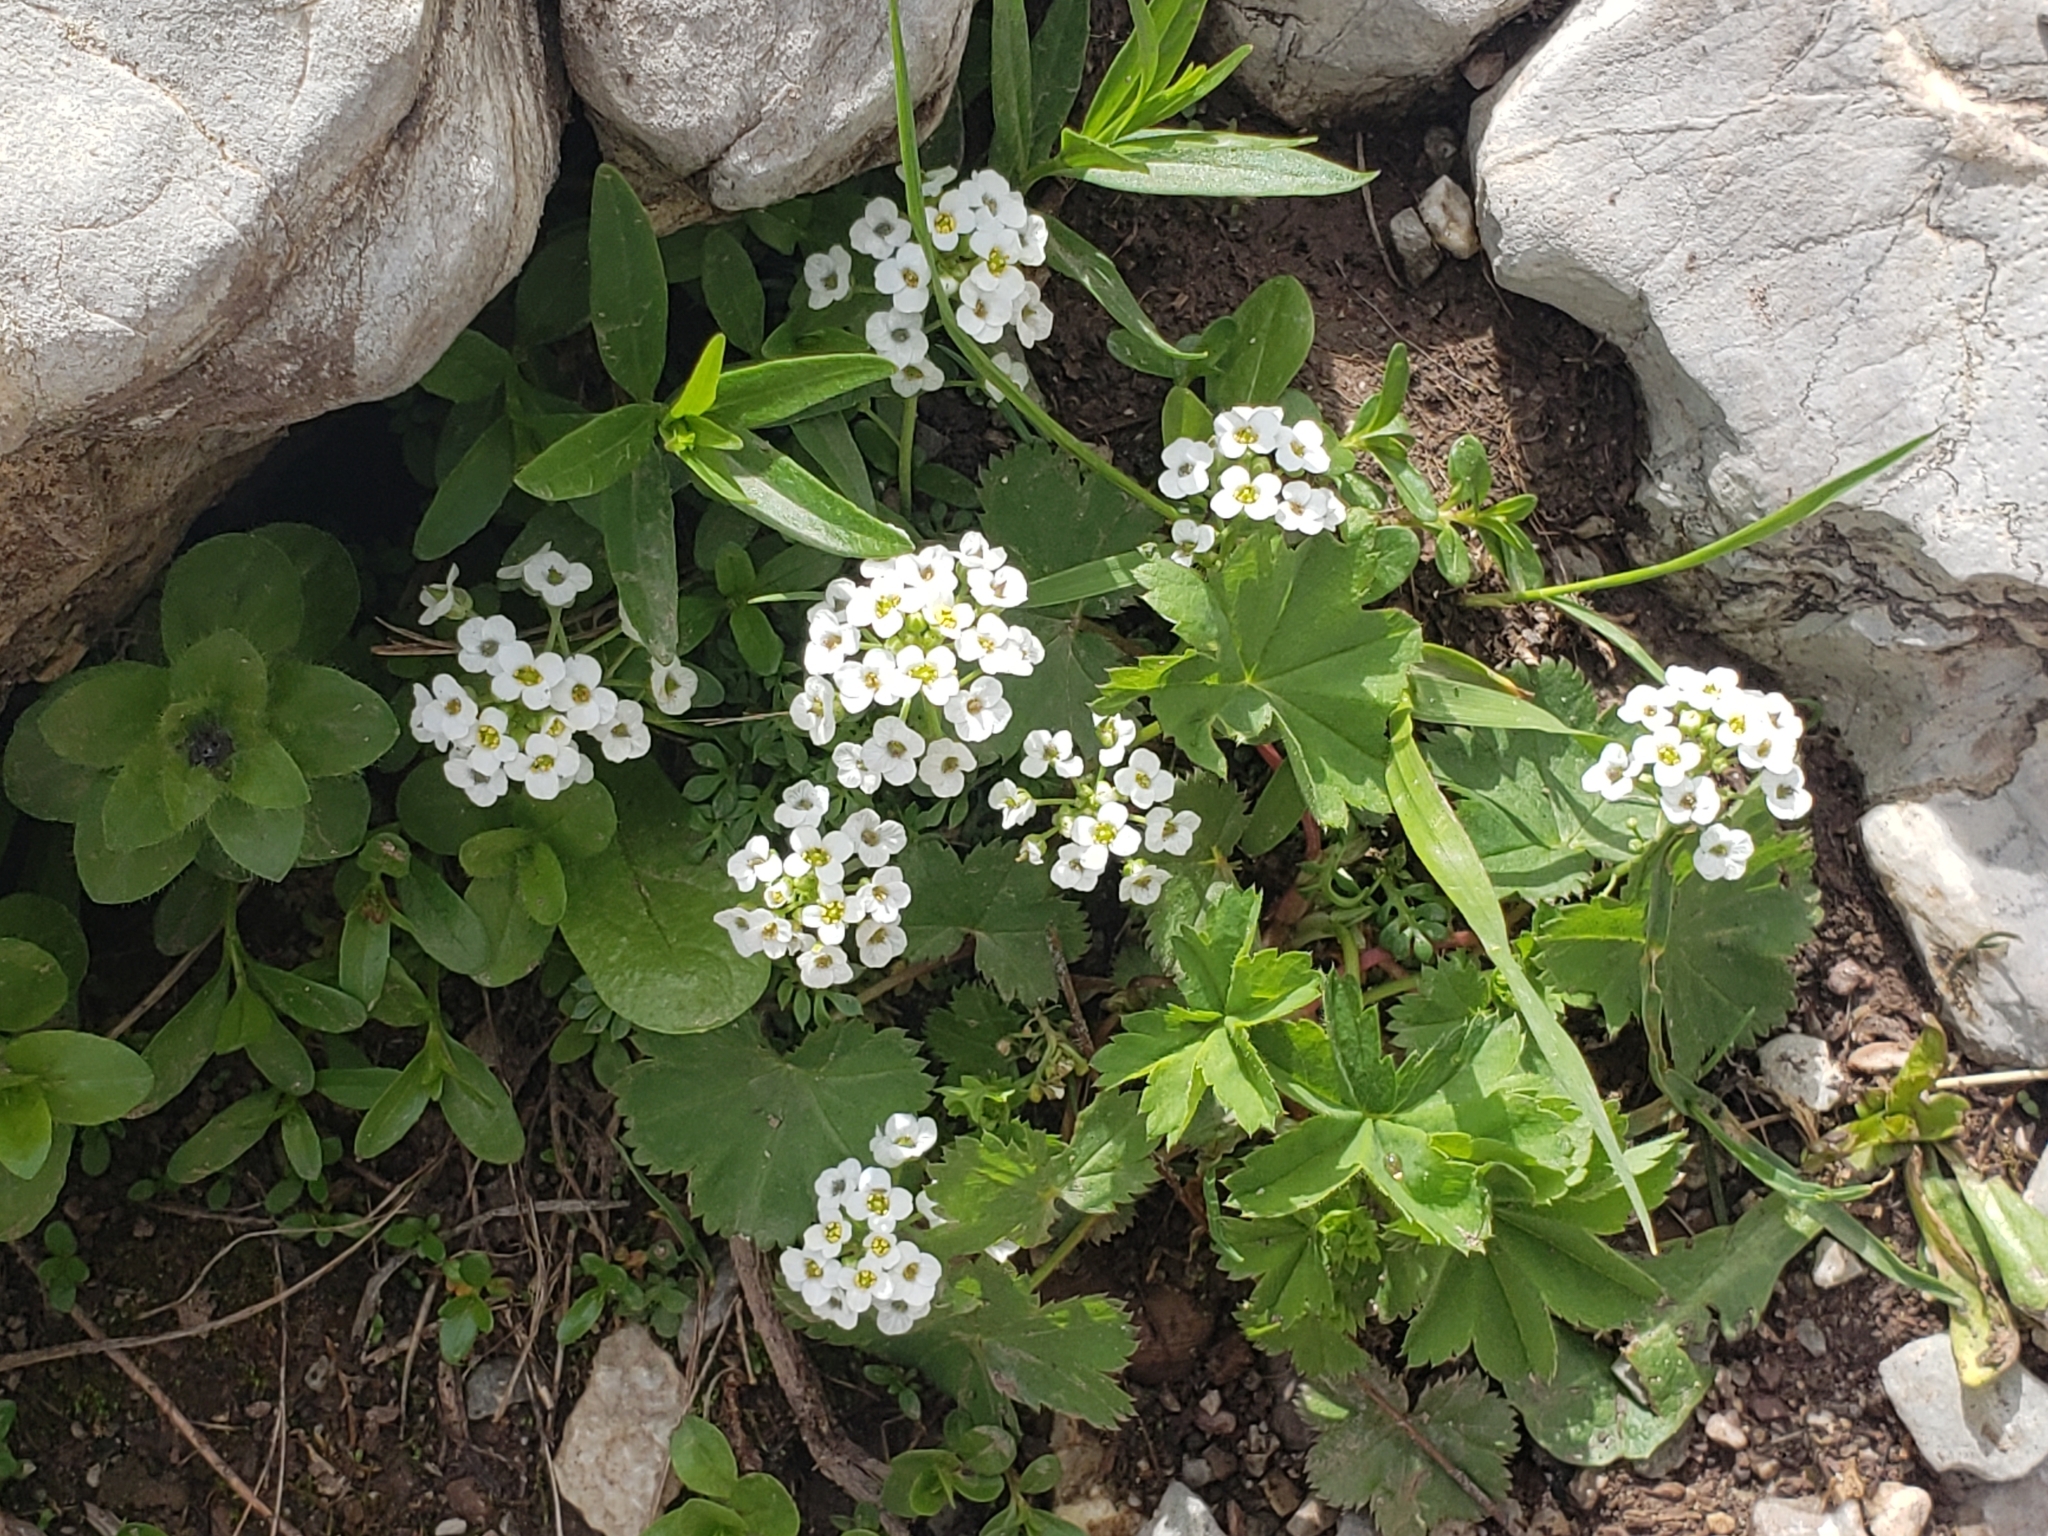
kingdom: Plantae
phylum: Tracheophyta
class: Magnoliopsida
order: Brassicales
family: Brassicaceae
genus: Hornungia
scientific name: Hornungia alpina
